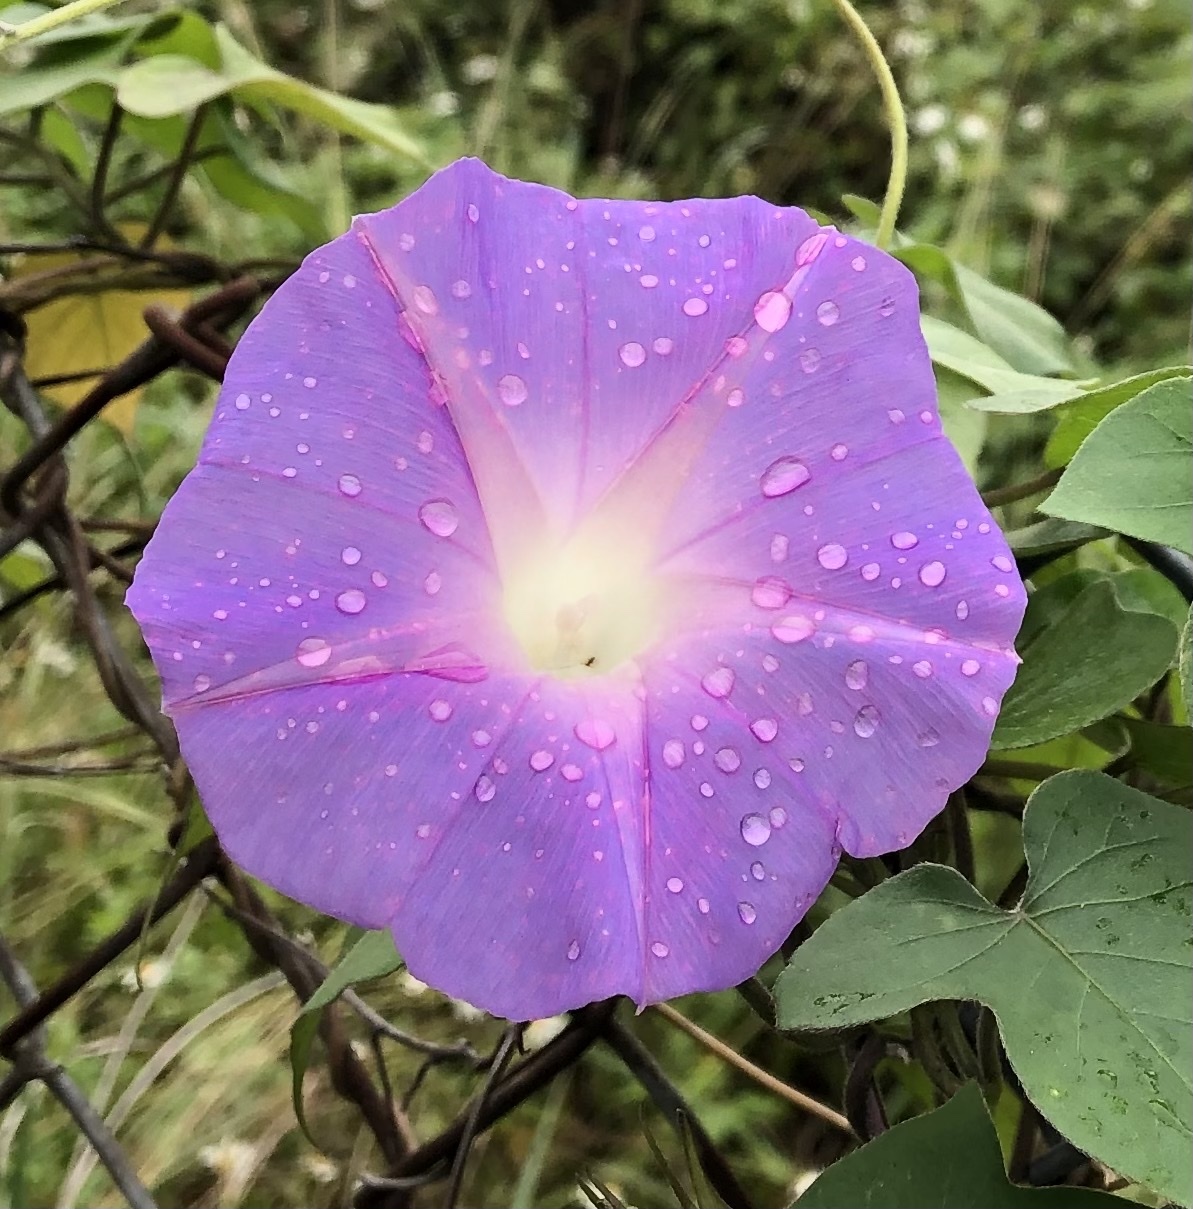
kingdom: Plantae
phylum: Tracheophyta
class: Magnoliopsida
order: Solanales
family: Convolvulaceae
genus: Ipomoea
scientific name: Ipomoea indica
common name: Blue dawnflower
